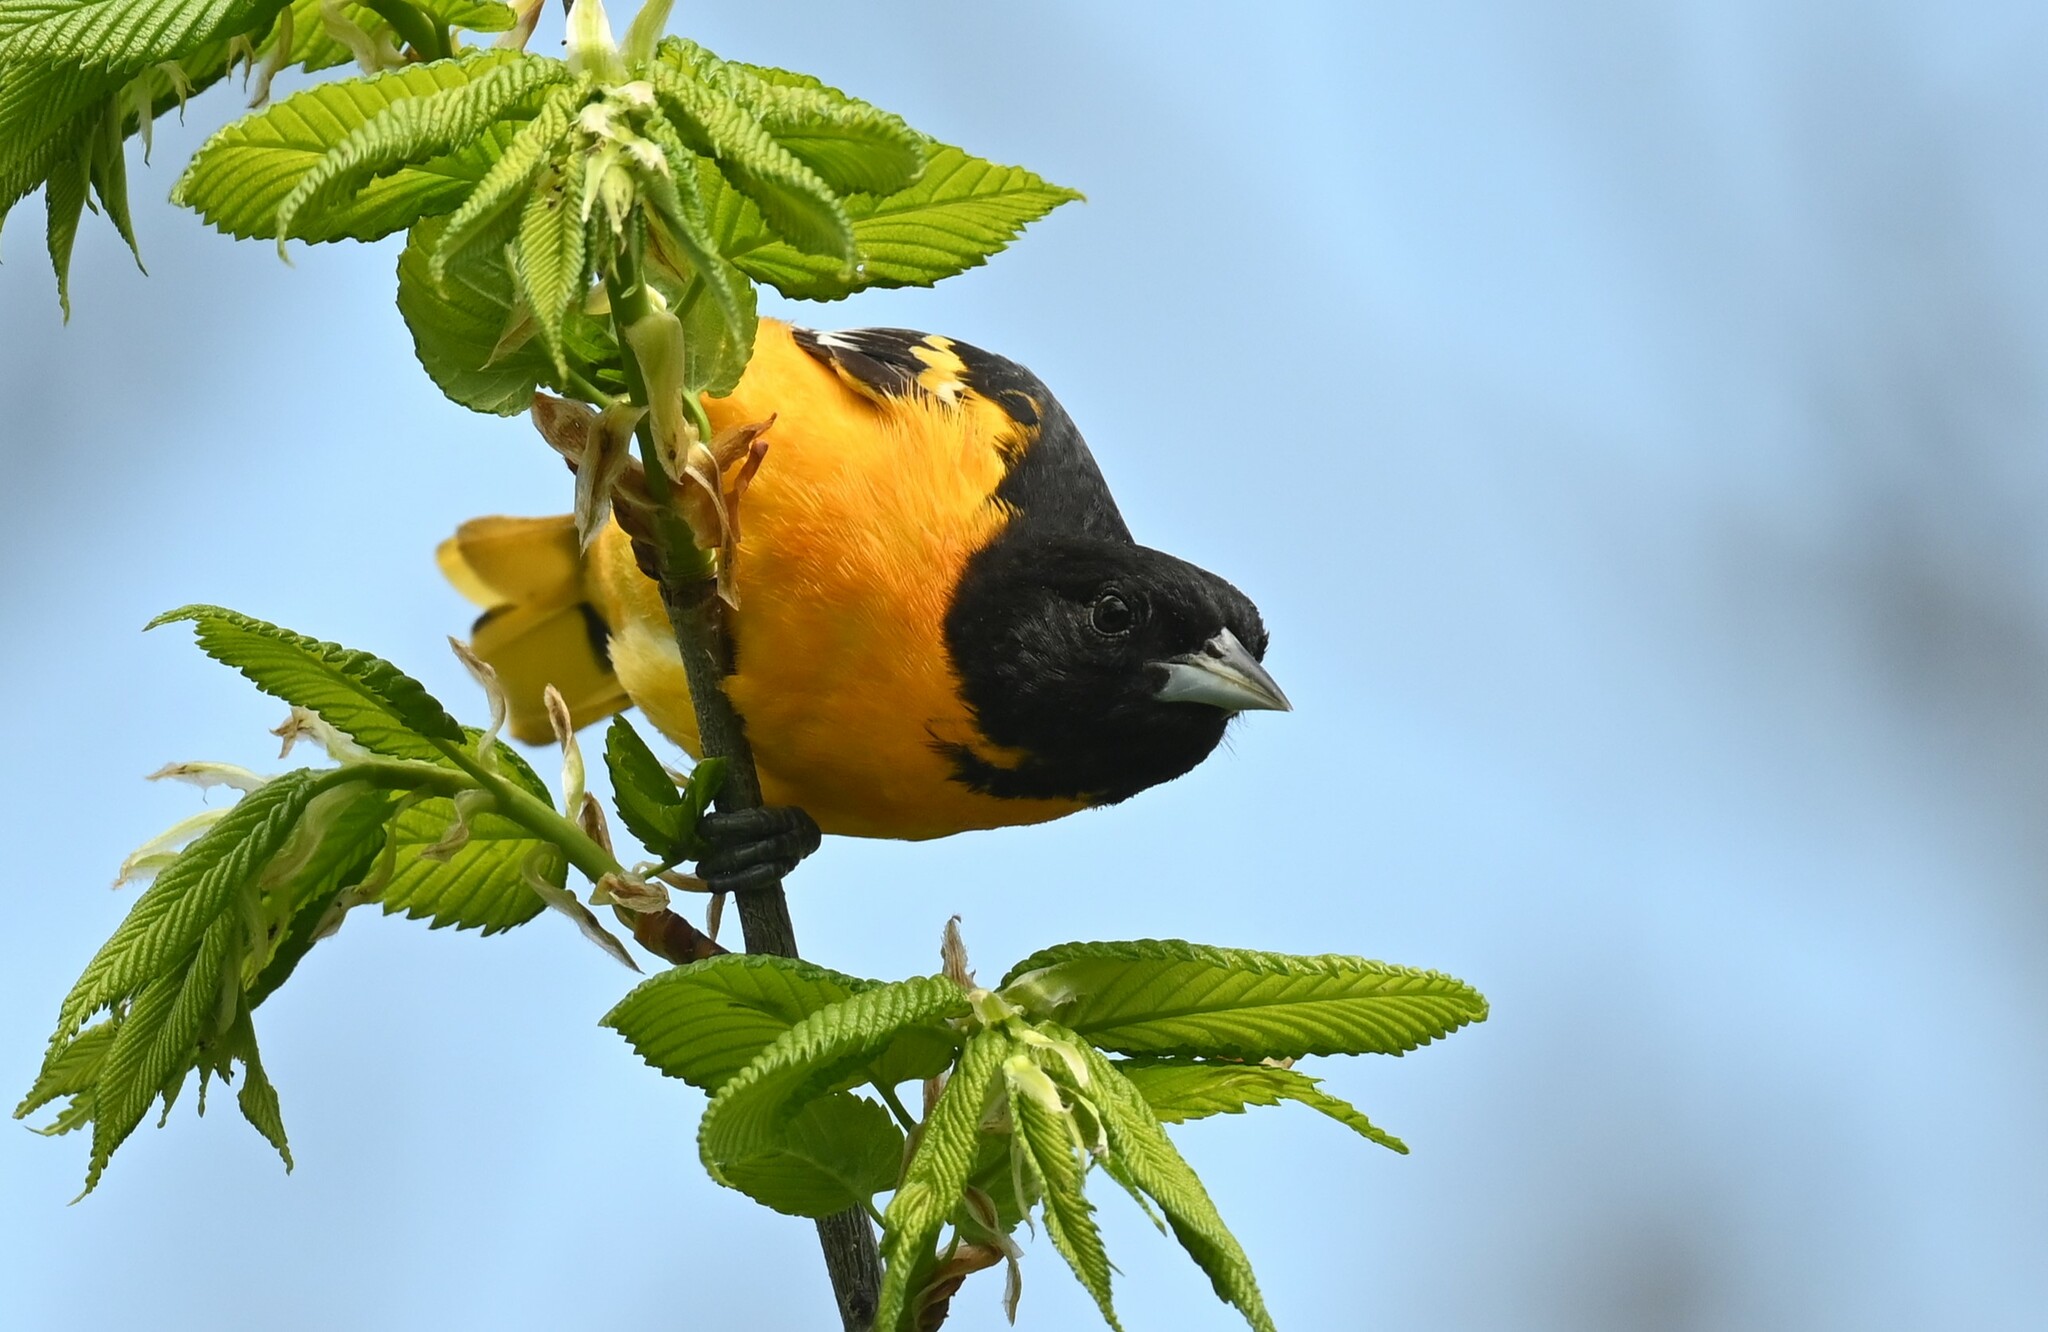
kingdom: Animalia
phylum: Chordata
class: Aves
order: Passeriformes
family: Icteridae
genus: Icterus
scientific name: Icterus galbula
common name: Baltimore oriole
